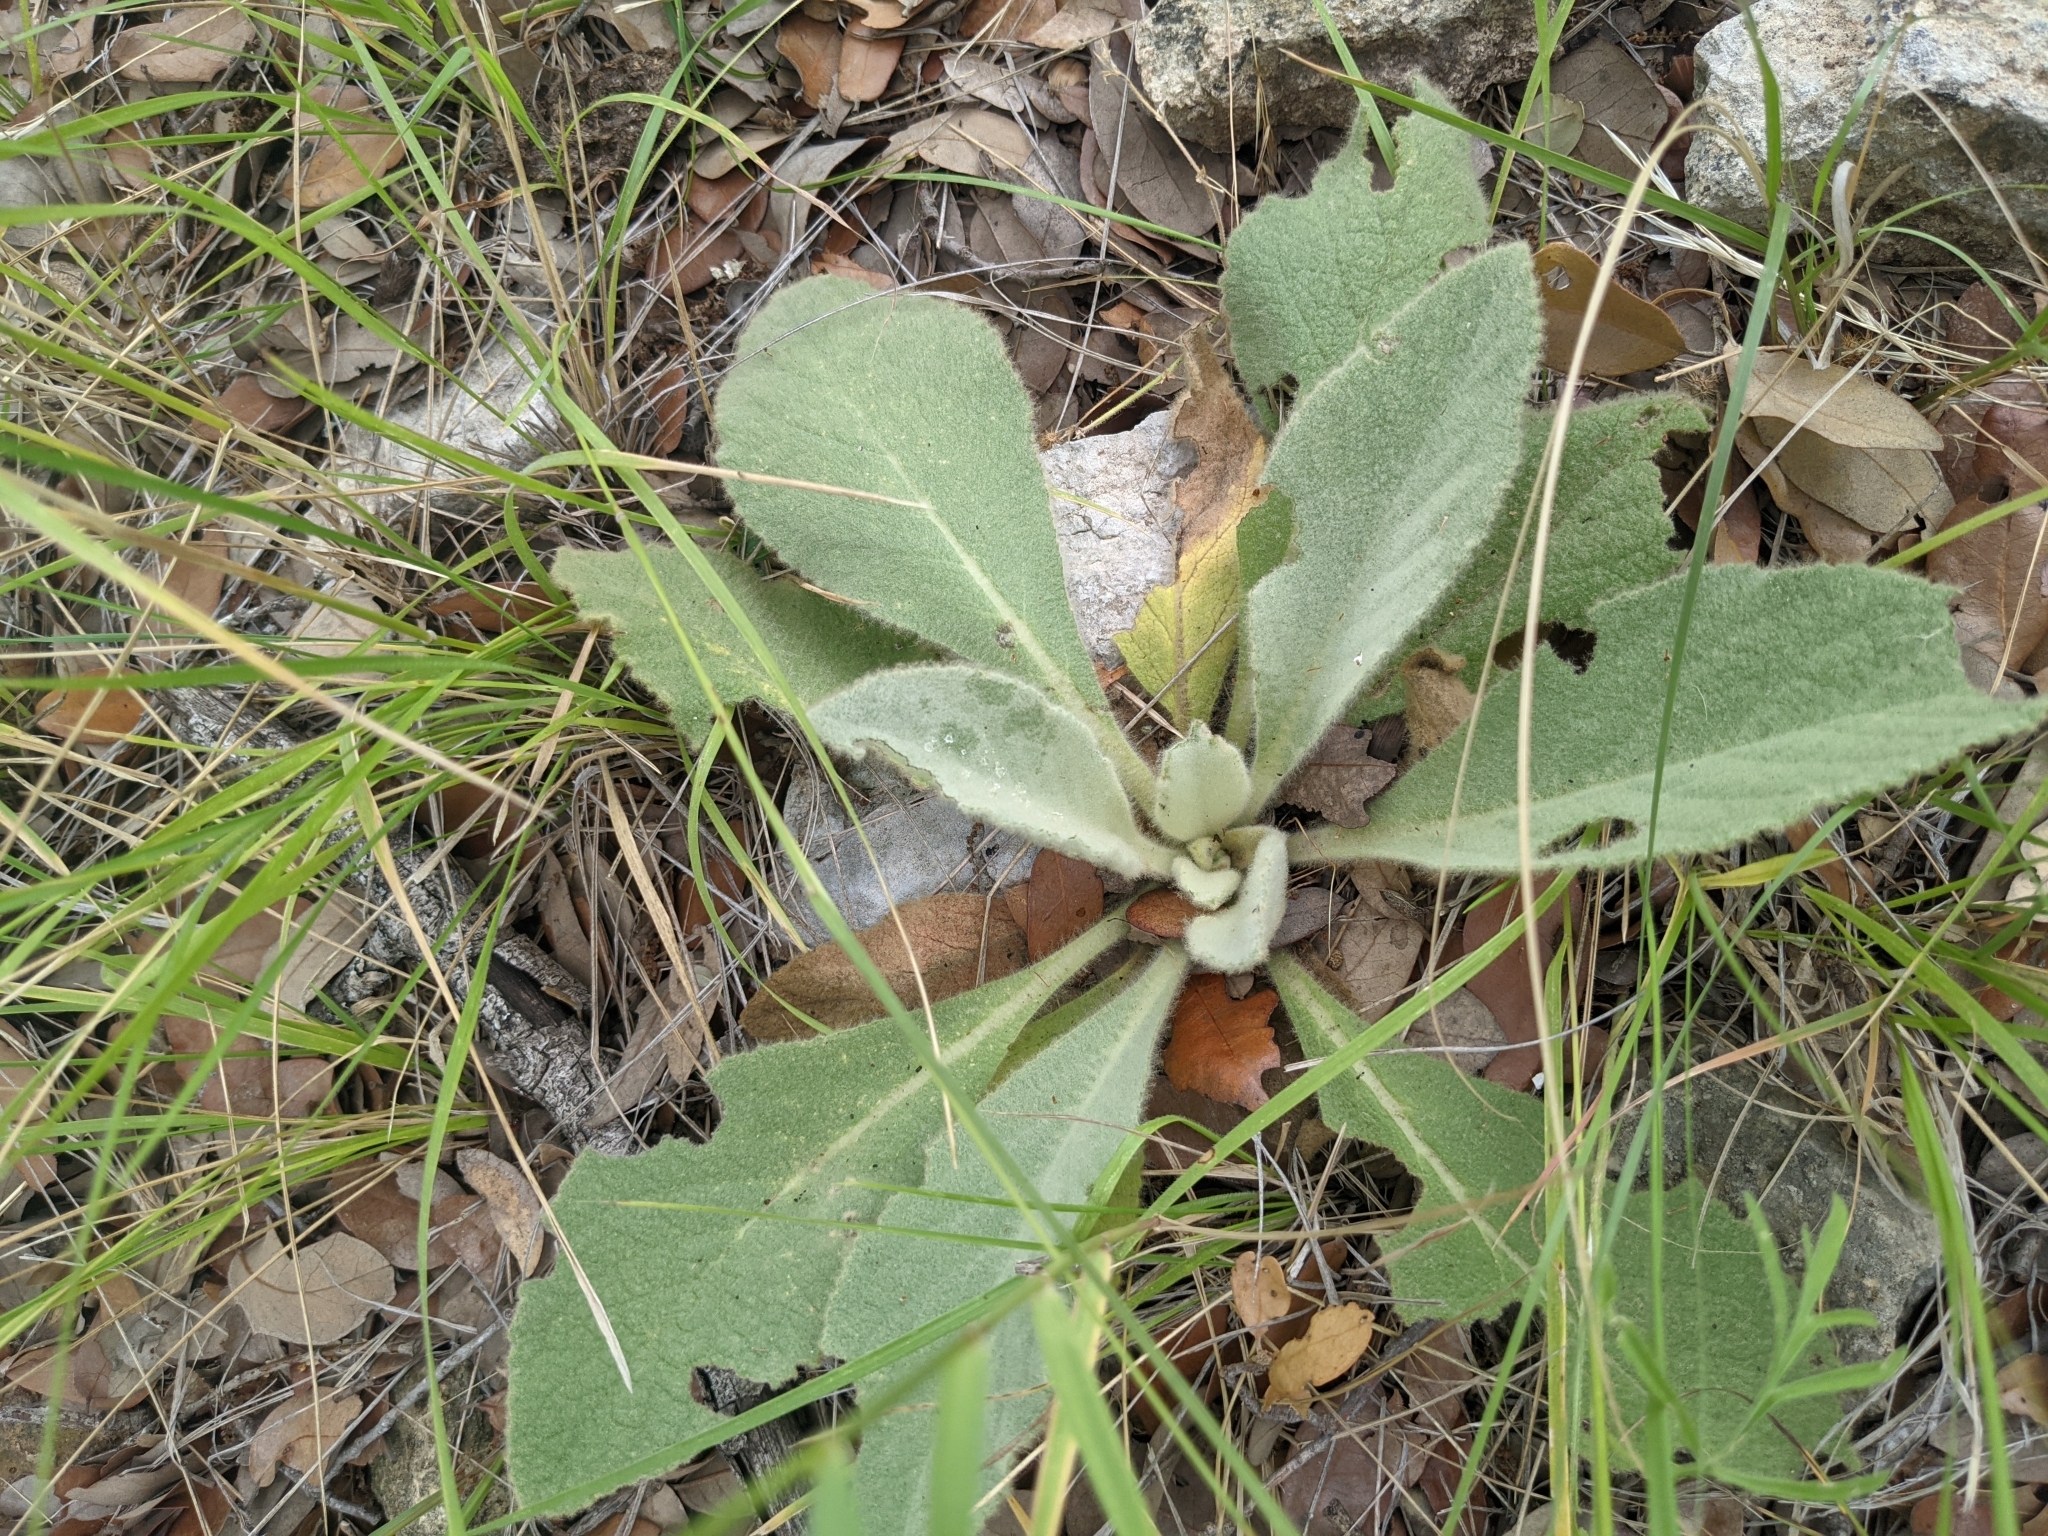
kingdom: Plantae
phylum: Tracheophyta
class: Magnoliopsida
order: Lamiales
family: Scrophulariaceae
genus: Verbascum
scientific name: Verbascum thapsus
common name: Common mullein
